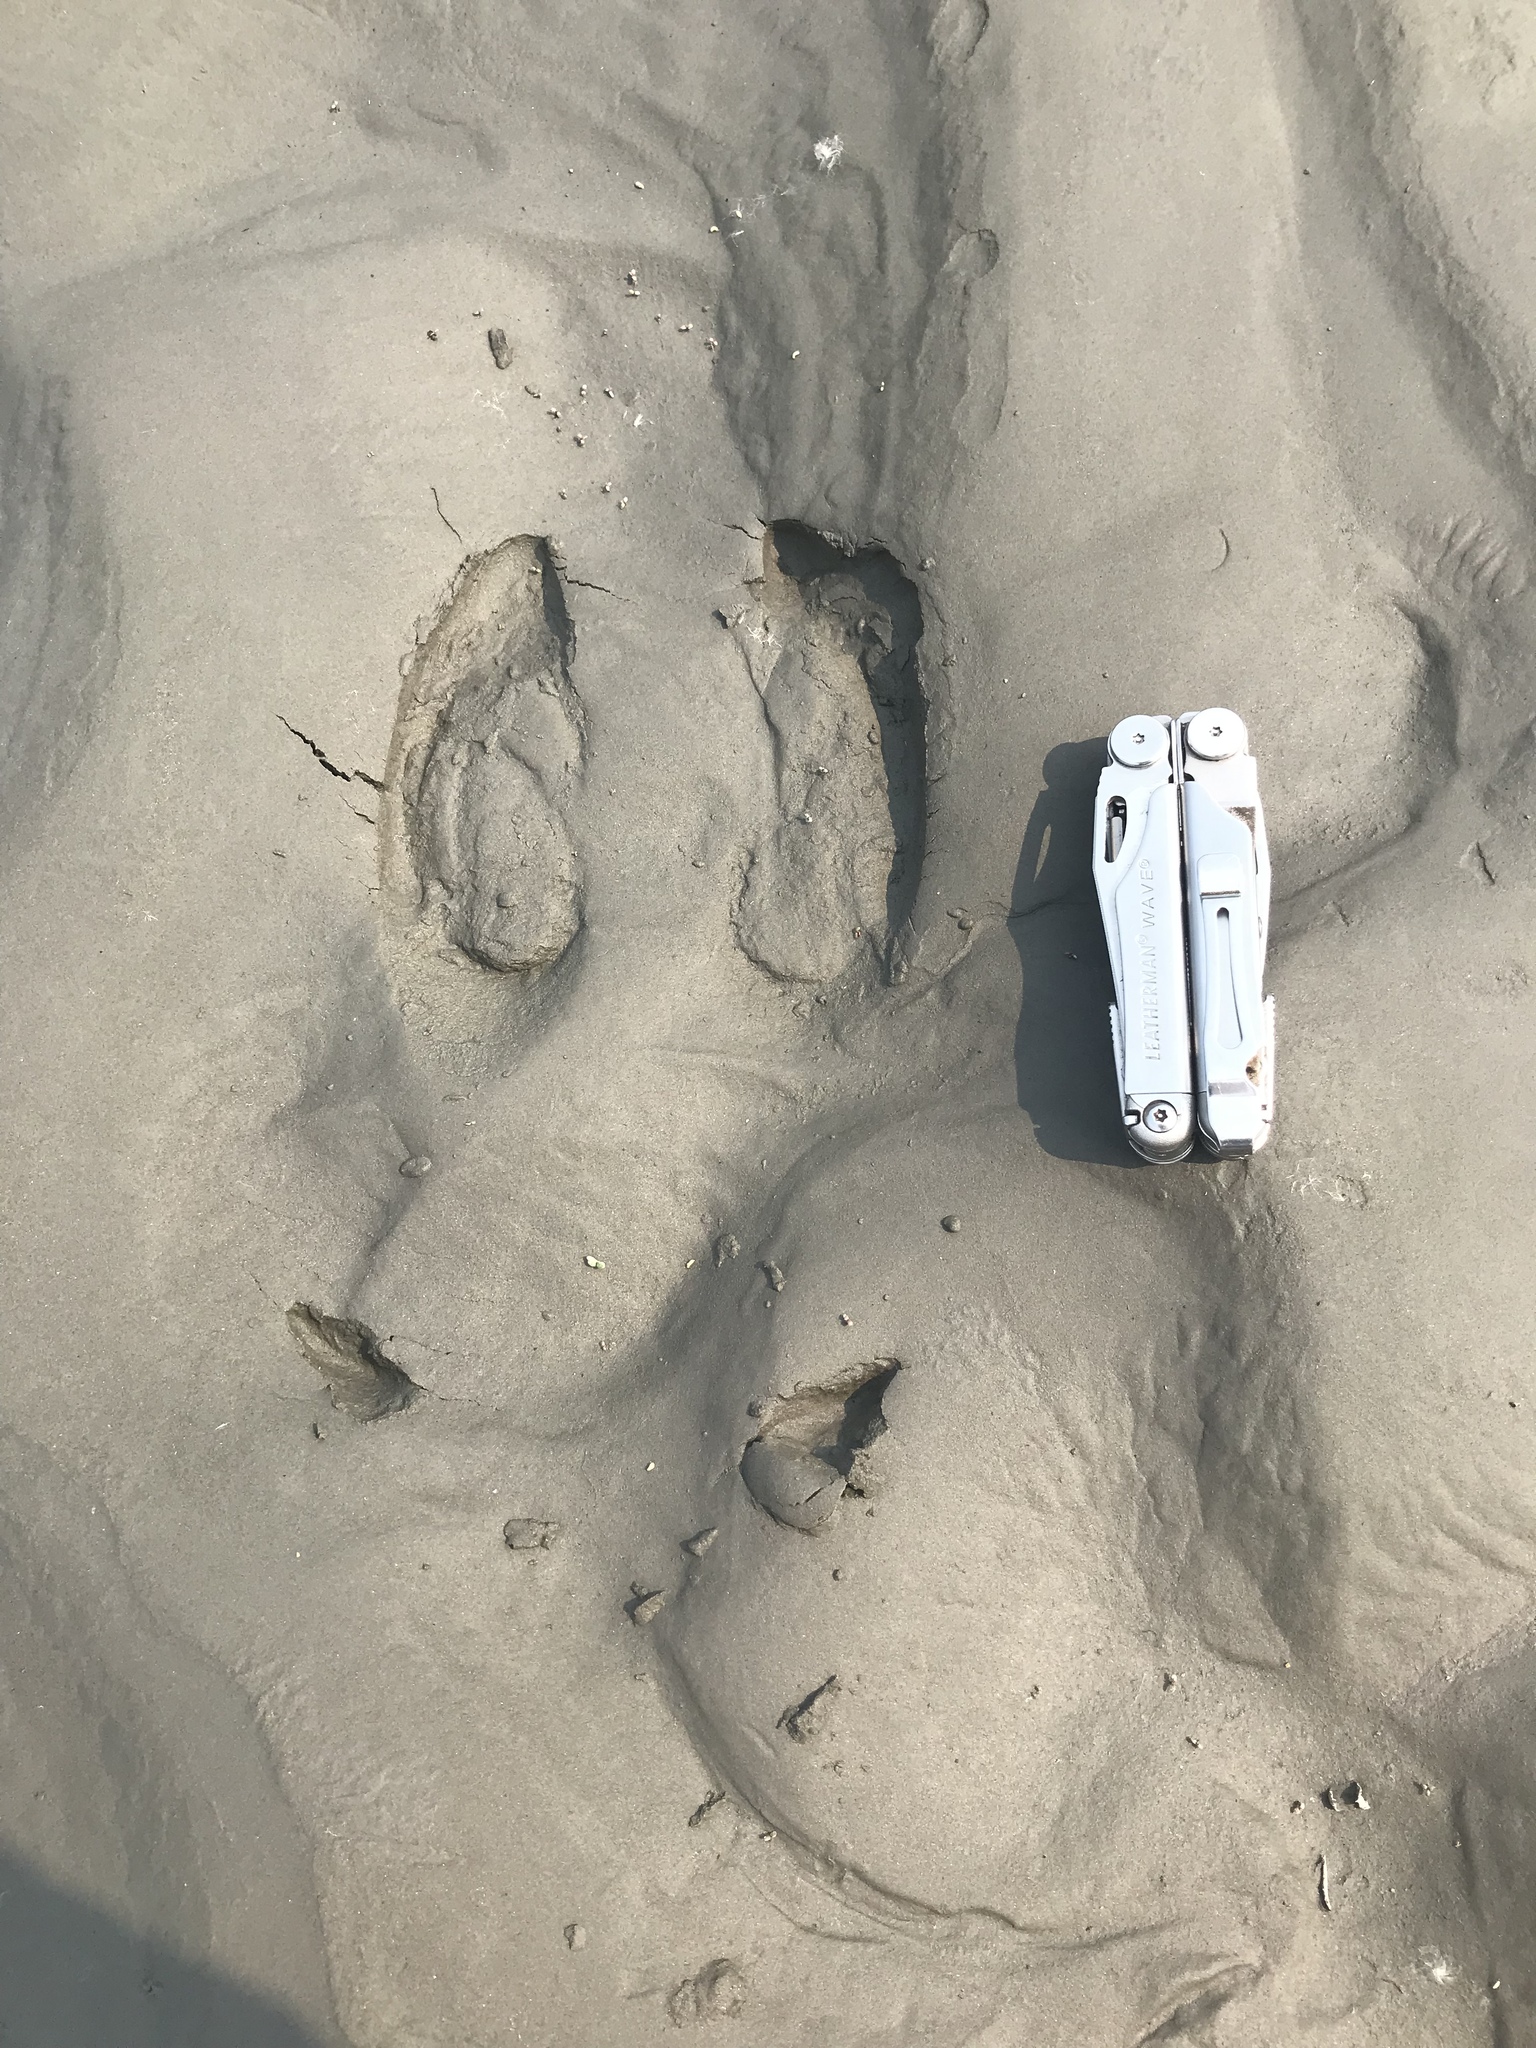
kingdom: Animalia
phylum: Chordata
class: Mammalia
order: Artiodactyla
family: Cervidae
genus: Alces
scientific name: Alces alces
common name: Moose
